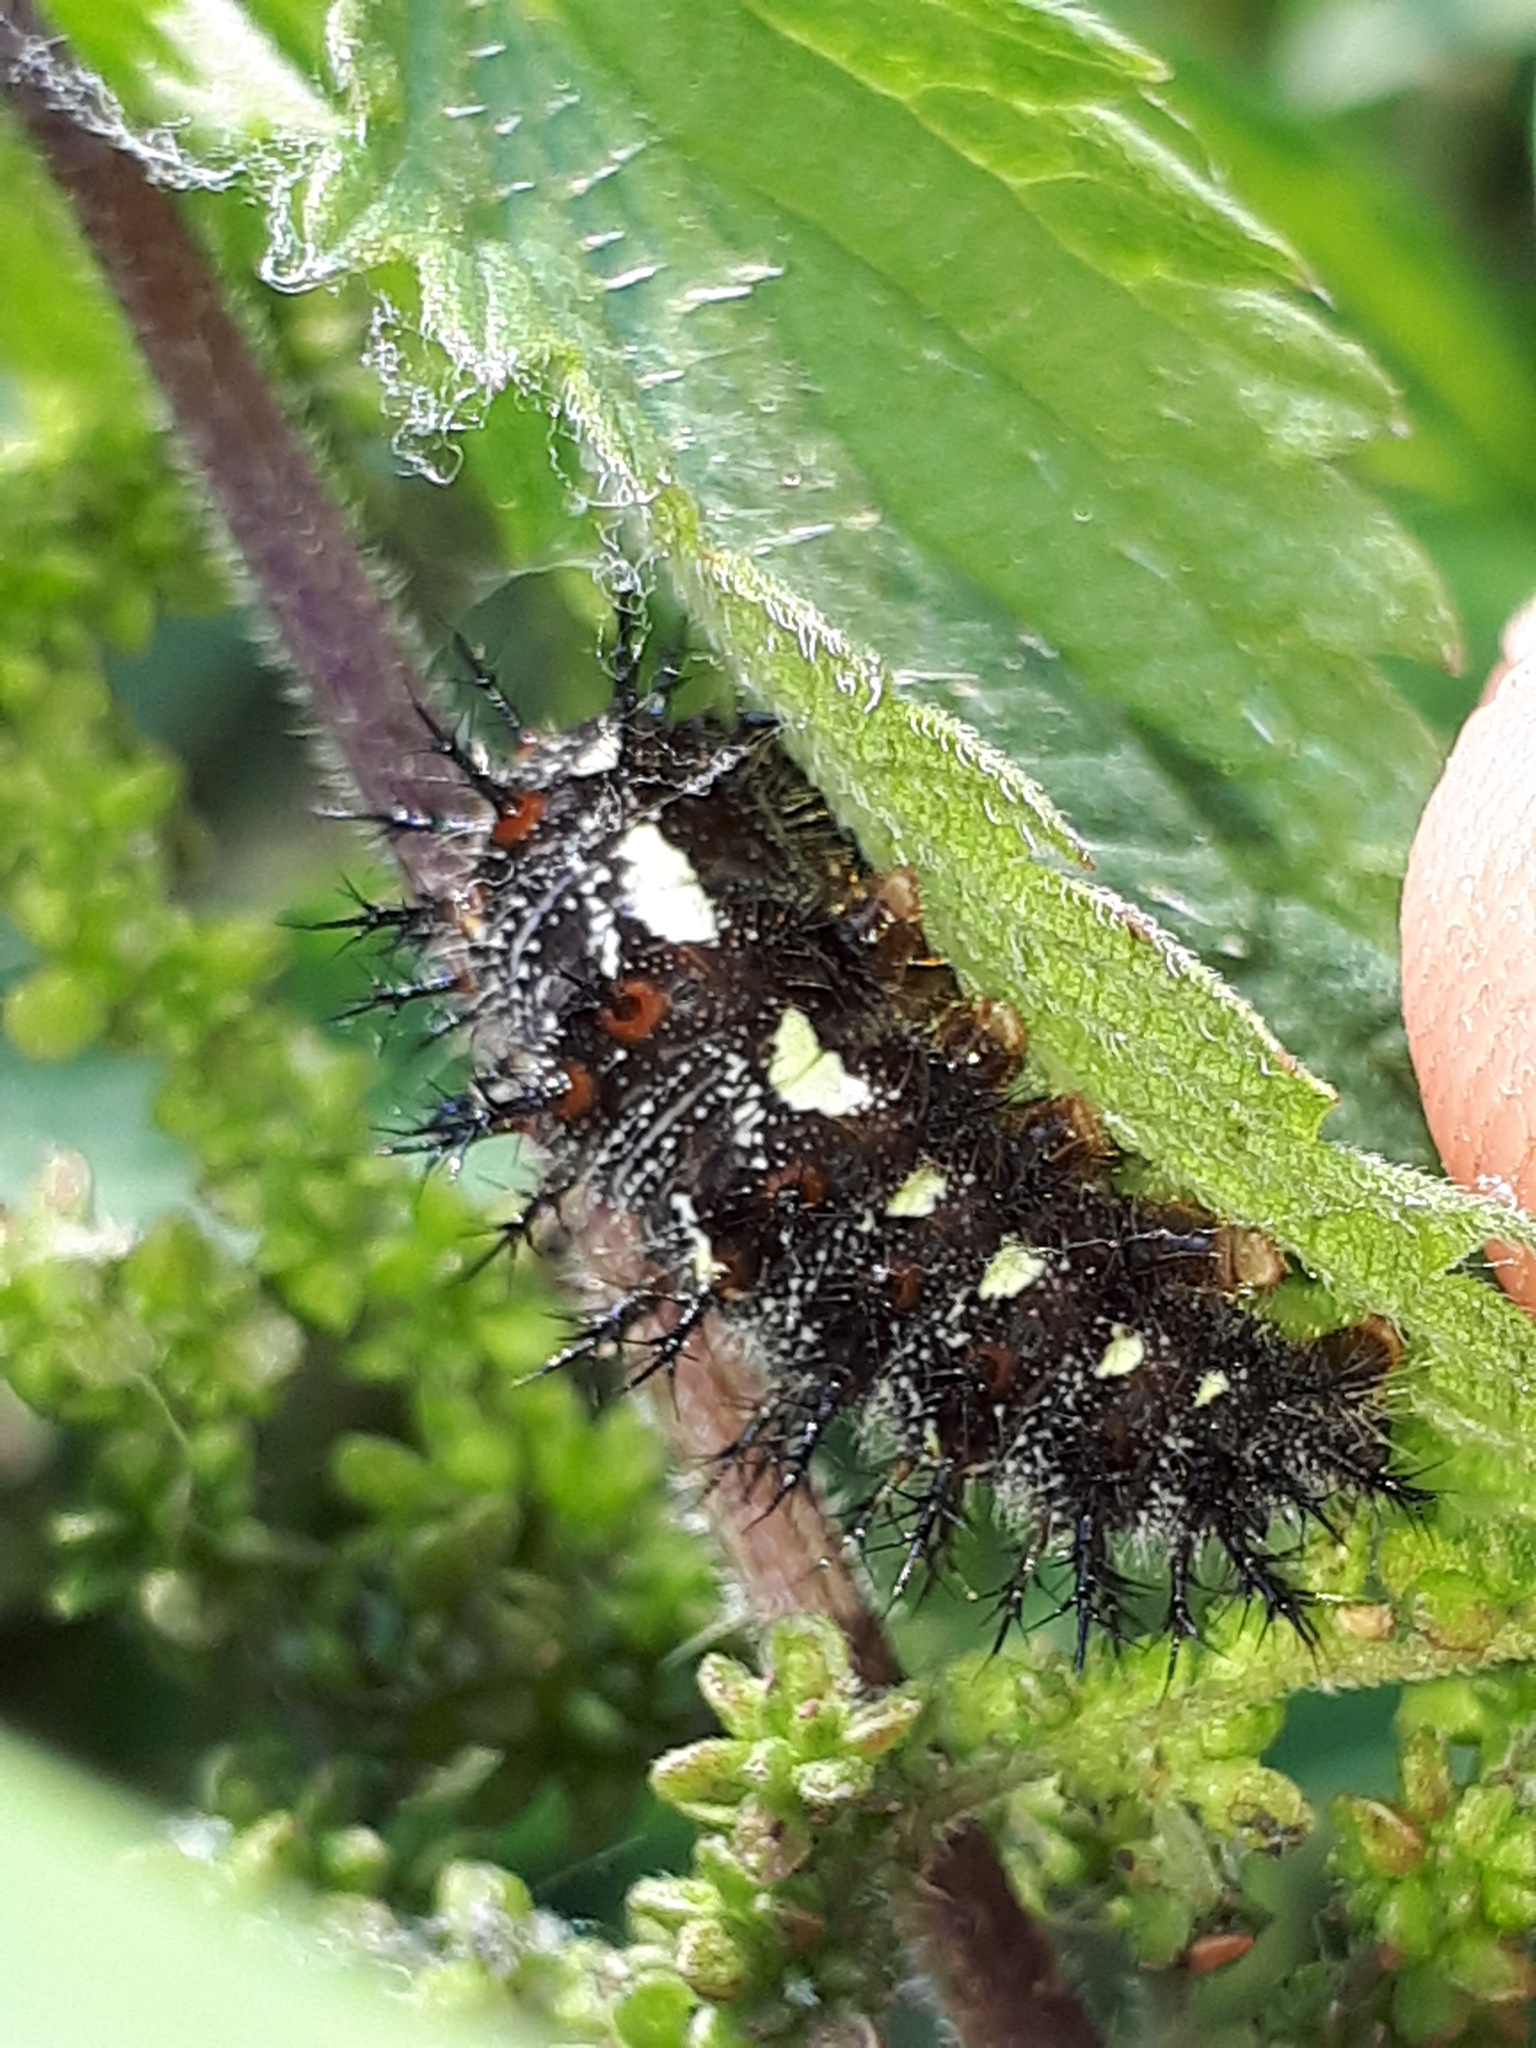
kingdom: Animalia
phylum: Arthropoda
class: Insecta
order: Lepidoptera
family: Nymphalidae
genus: Vanessa
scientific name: Vanessa atalanta
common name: Red admiral
